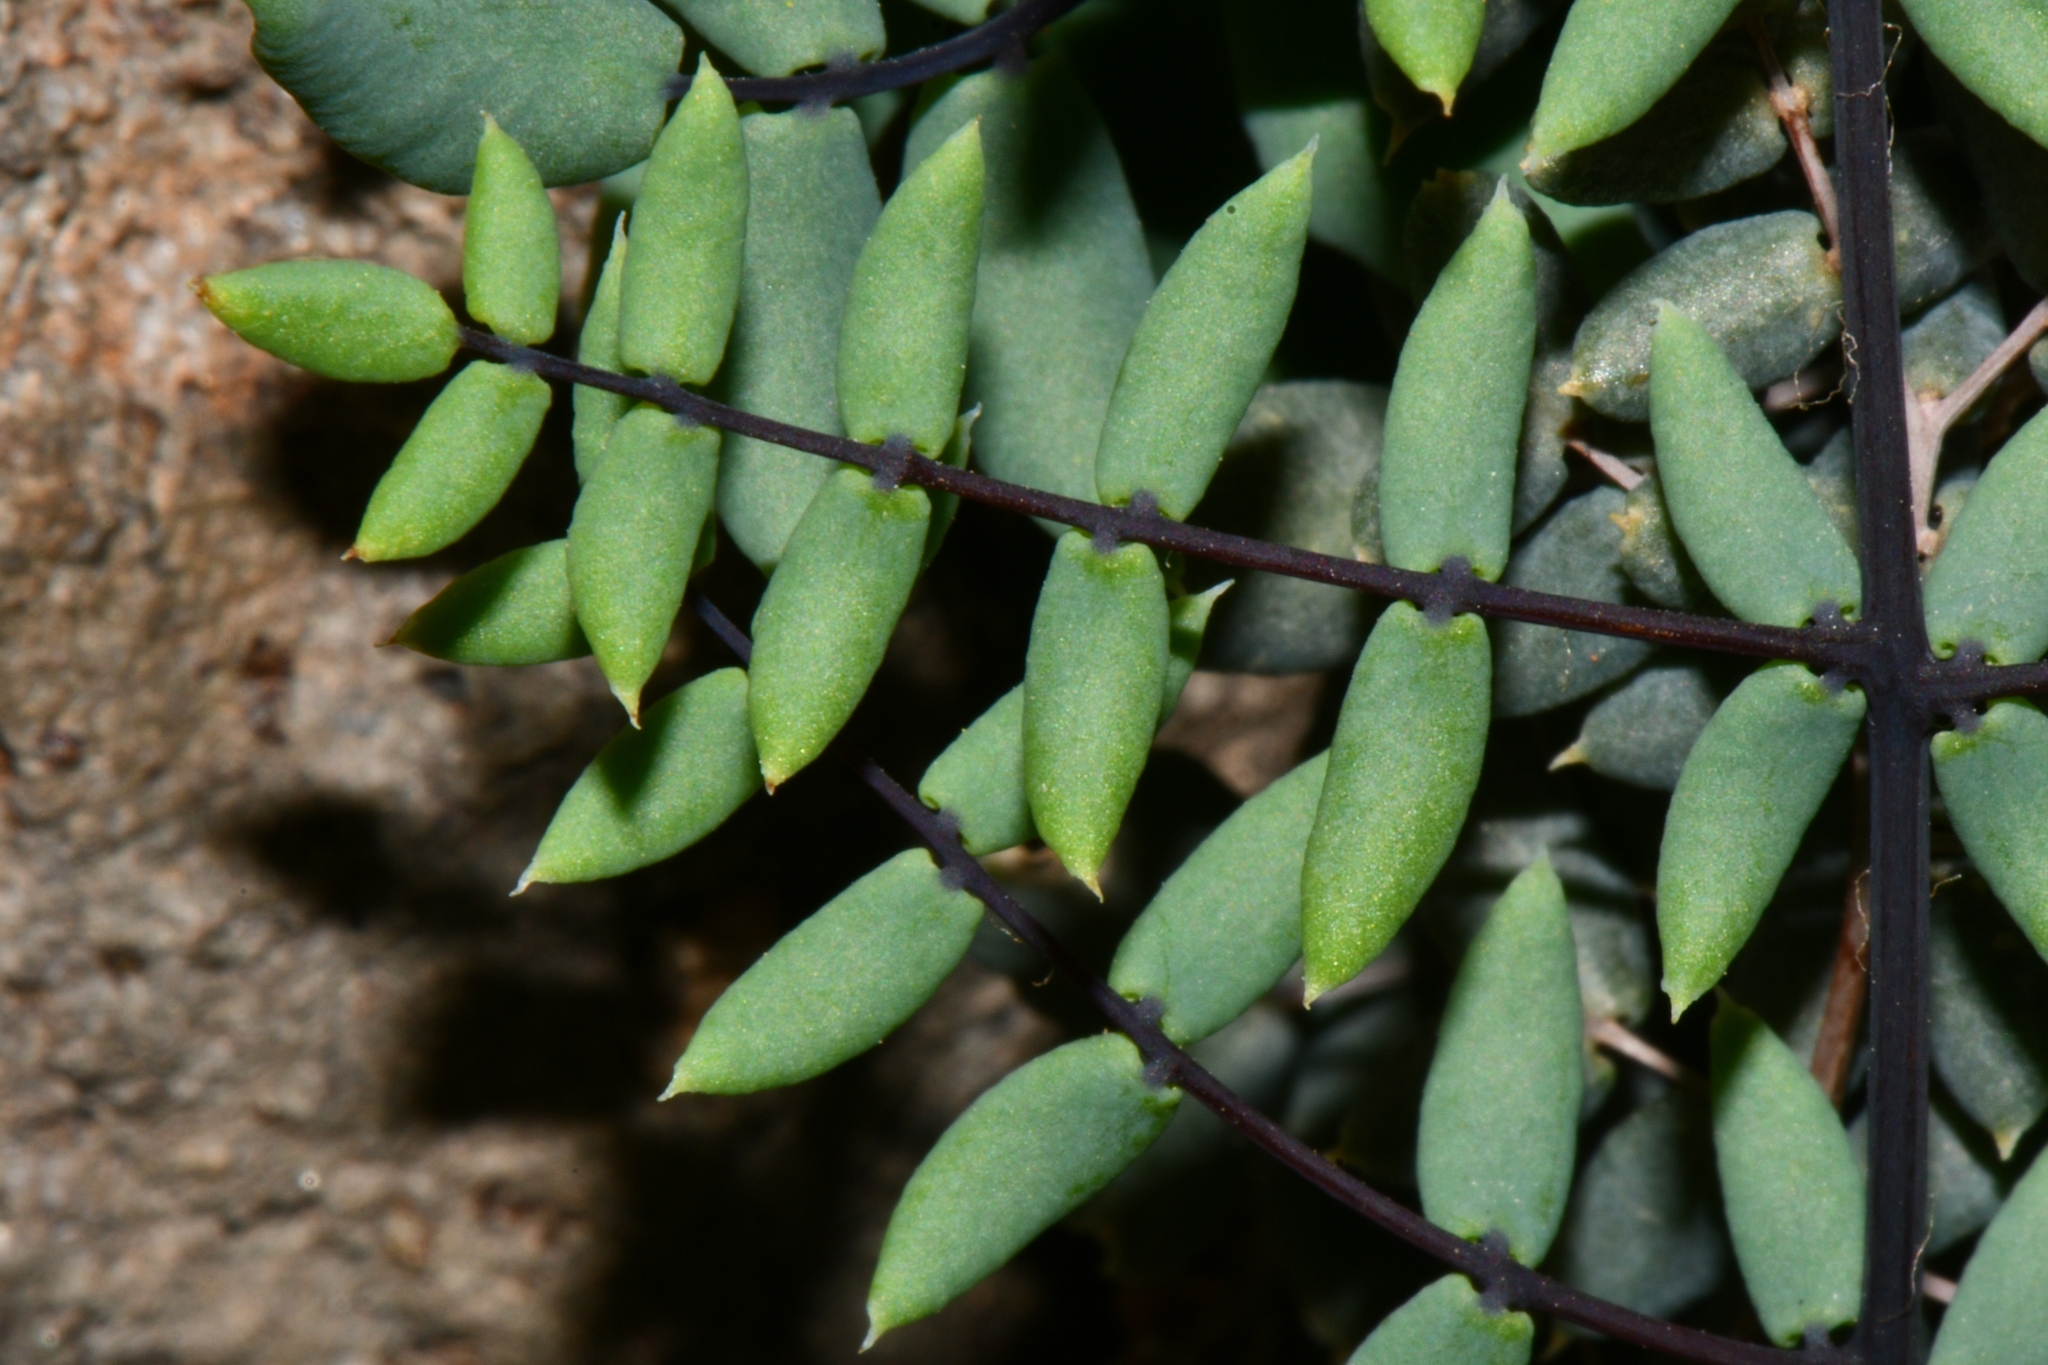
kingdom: Plantae
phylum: Tracheophyta
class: Polypodiopsida
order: Polypodiales
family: Pteridaceae
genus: Pellaea
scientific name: Pellaea truncata
